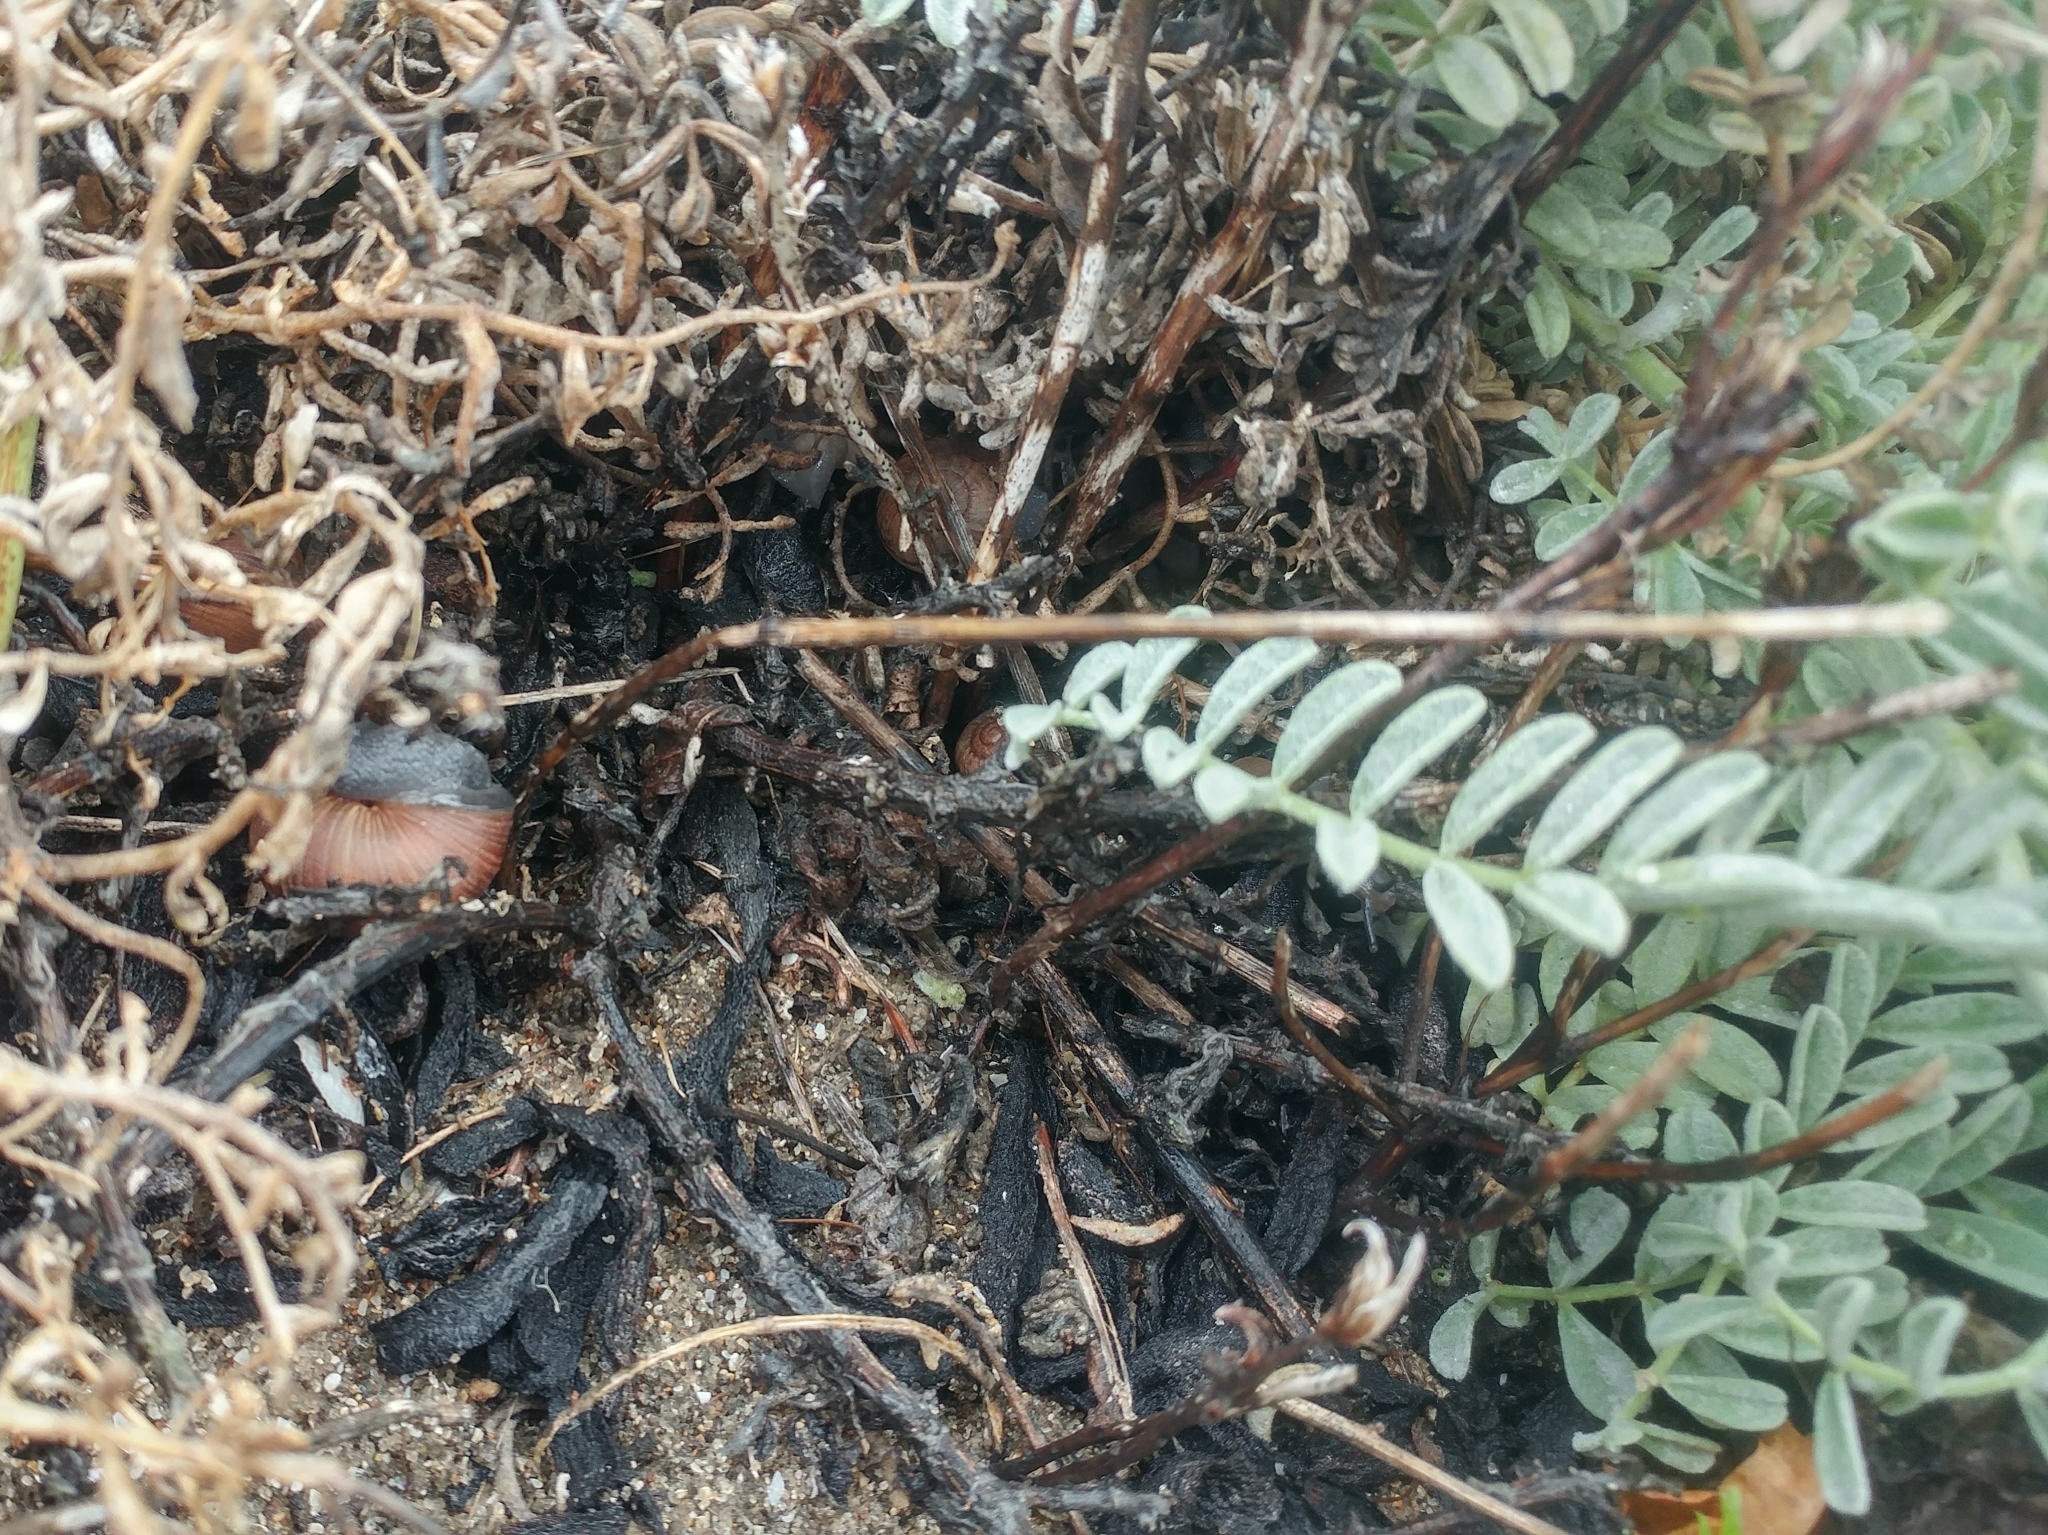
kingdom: Animalia
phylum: Mollusca
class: Gastropoda
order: Stylommatophora
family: Xanthonychidae
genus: Xerarionta
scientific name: Xerarionta intercisa
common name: Plain cactus snail
